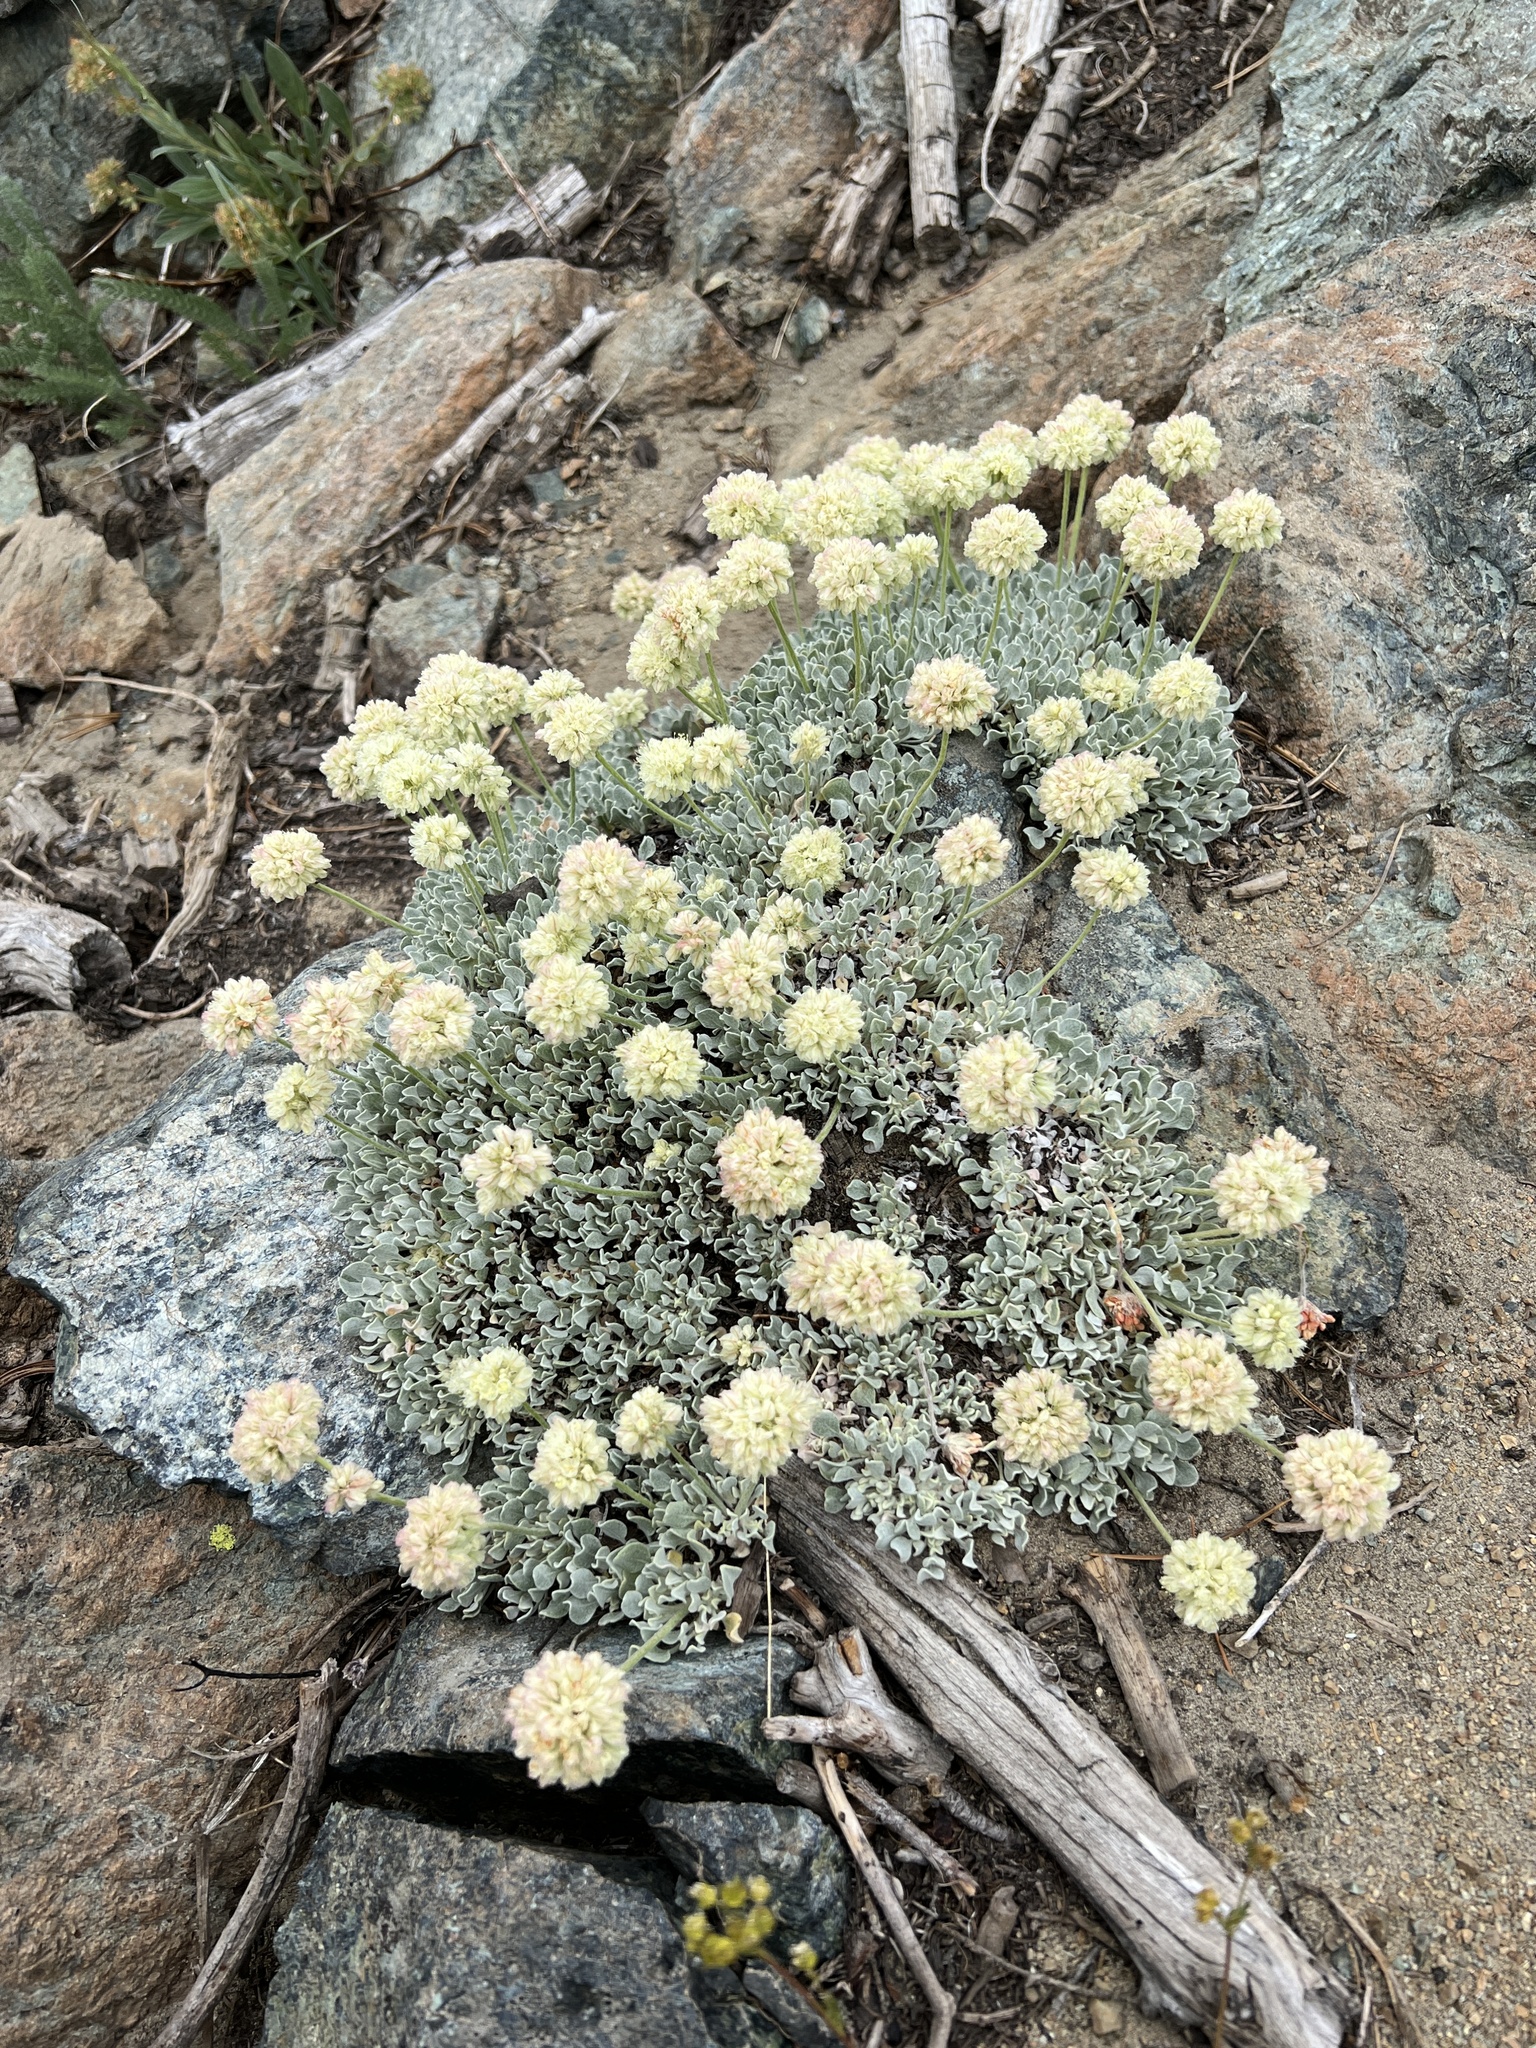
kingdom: Plantae
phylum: Tracheophyta
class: Magnoliopsida
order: Caryophyllales
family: Polygonaceae
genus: Eriogonum
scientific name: Eriogonum ovalifolium
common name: Cushion buckwheat
